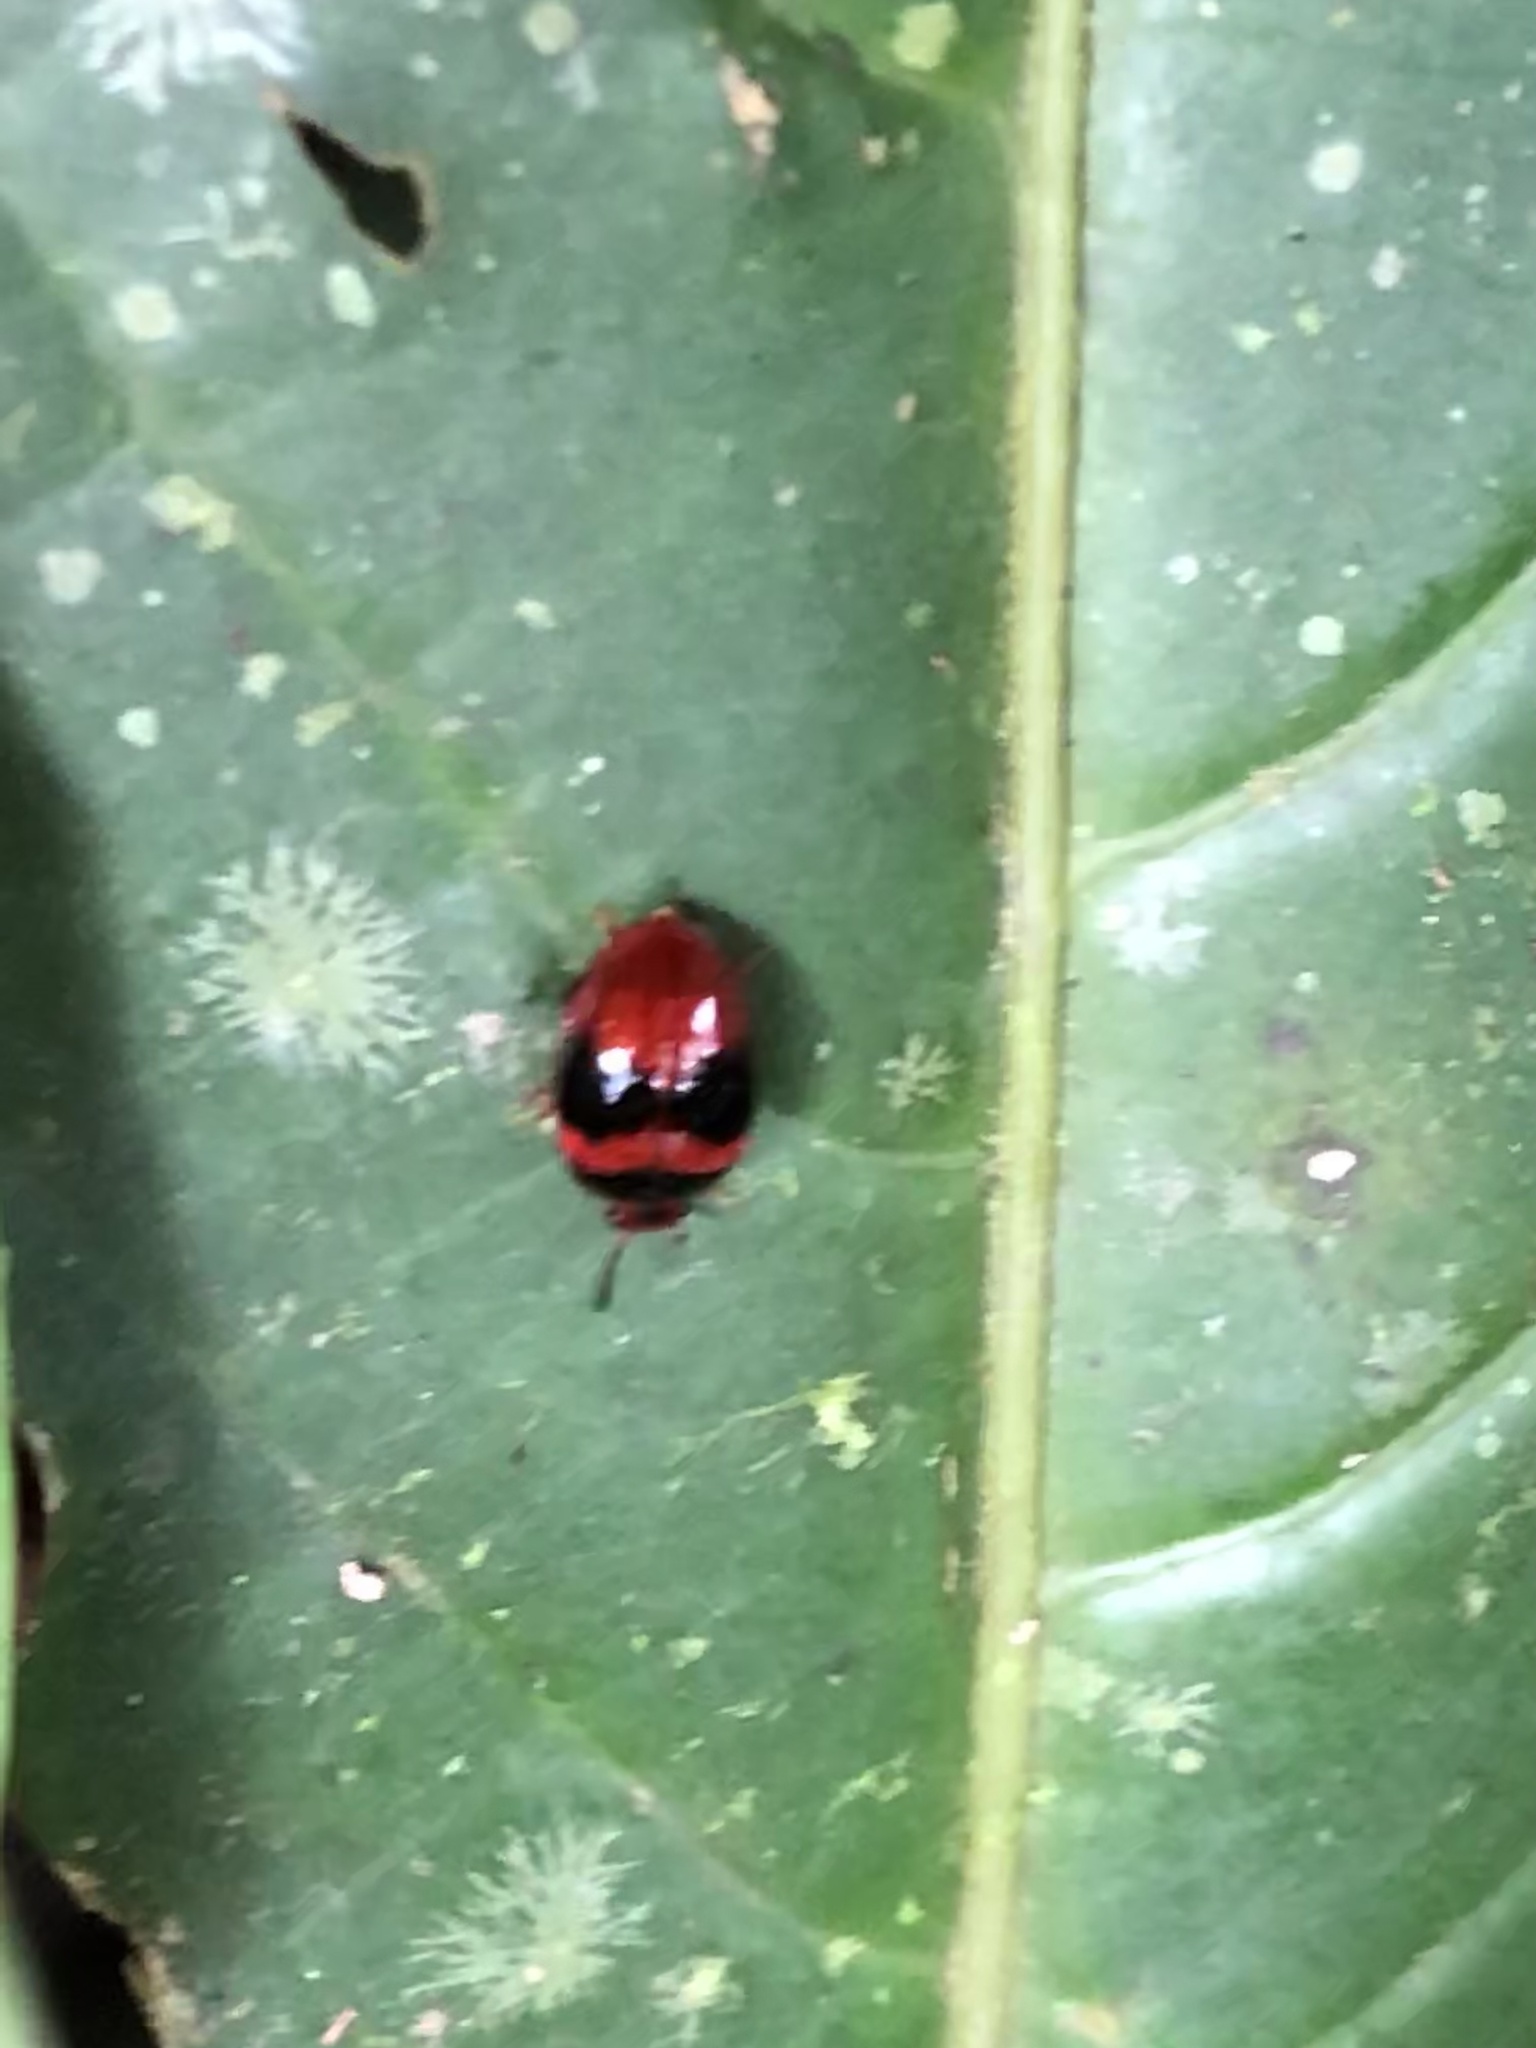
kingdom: Animalia
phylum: Arthropoda
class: Insecta
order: Coleoptera
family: Erotylidae
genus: Lybanodes
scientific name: Lybanodes
